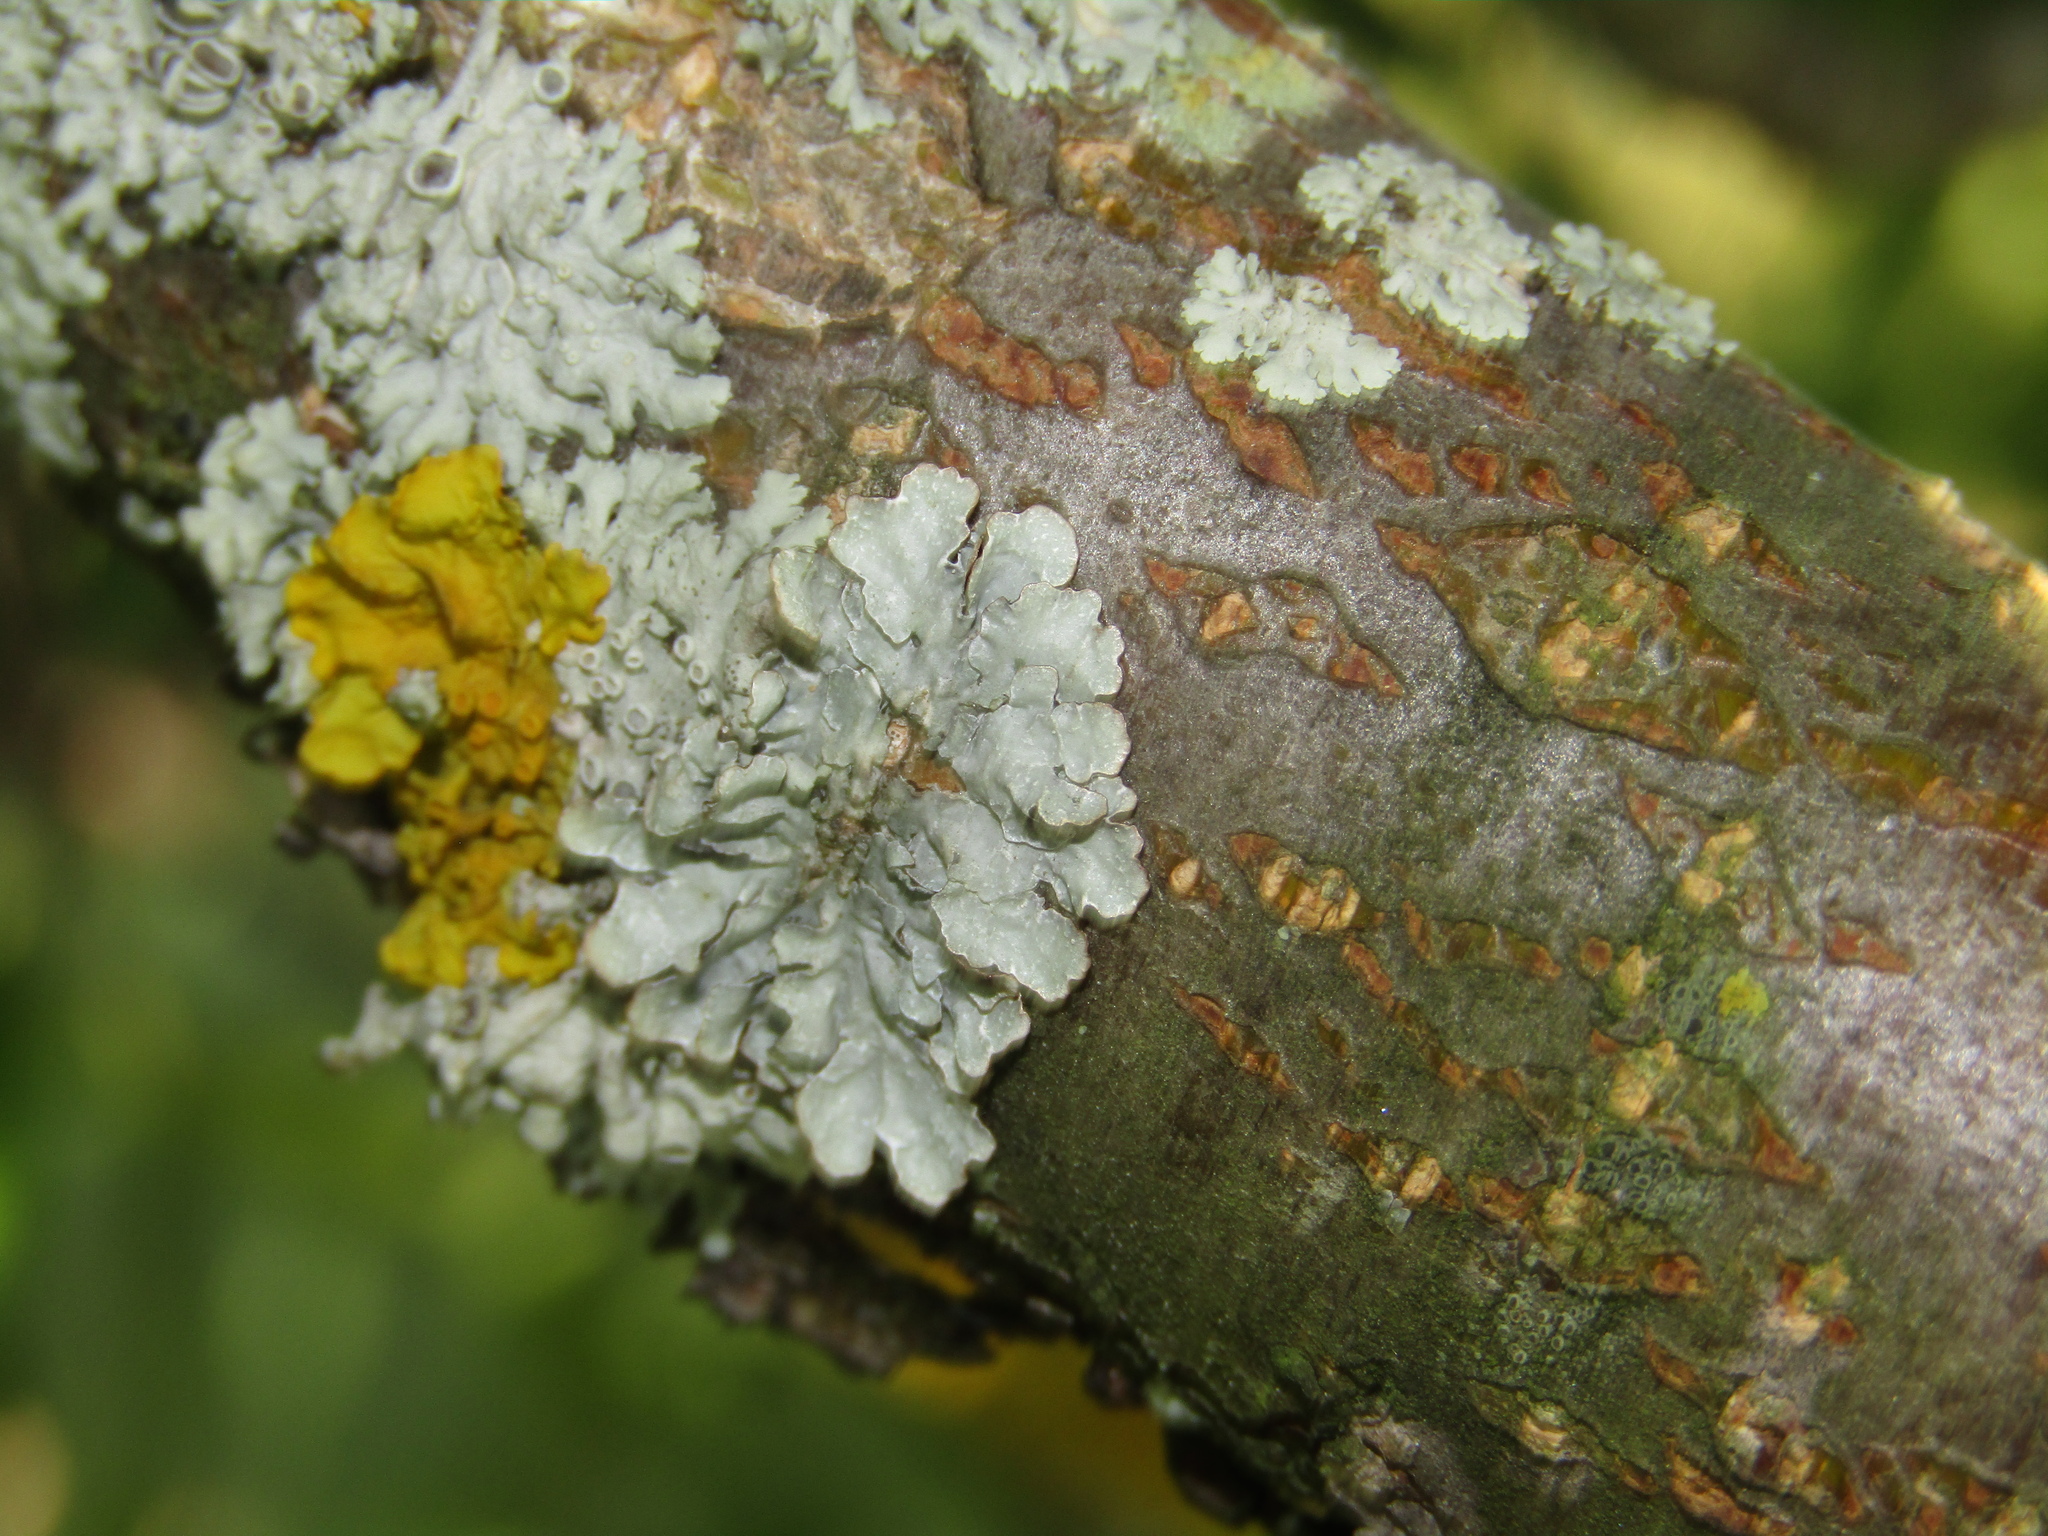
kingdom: Fungi
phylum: Ascomycota
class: Lecanoromycetes
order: Lecanorales
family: Parmeliaceae
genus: Parmelia
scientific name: Parmelia sulcata
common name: Netted shield lichen
